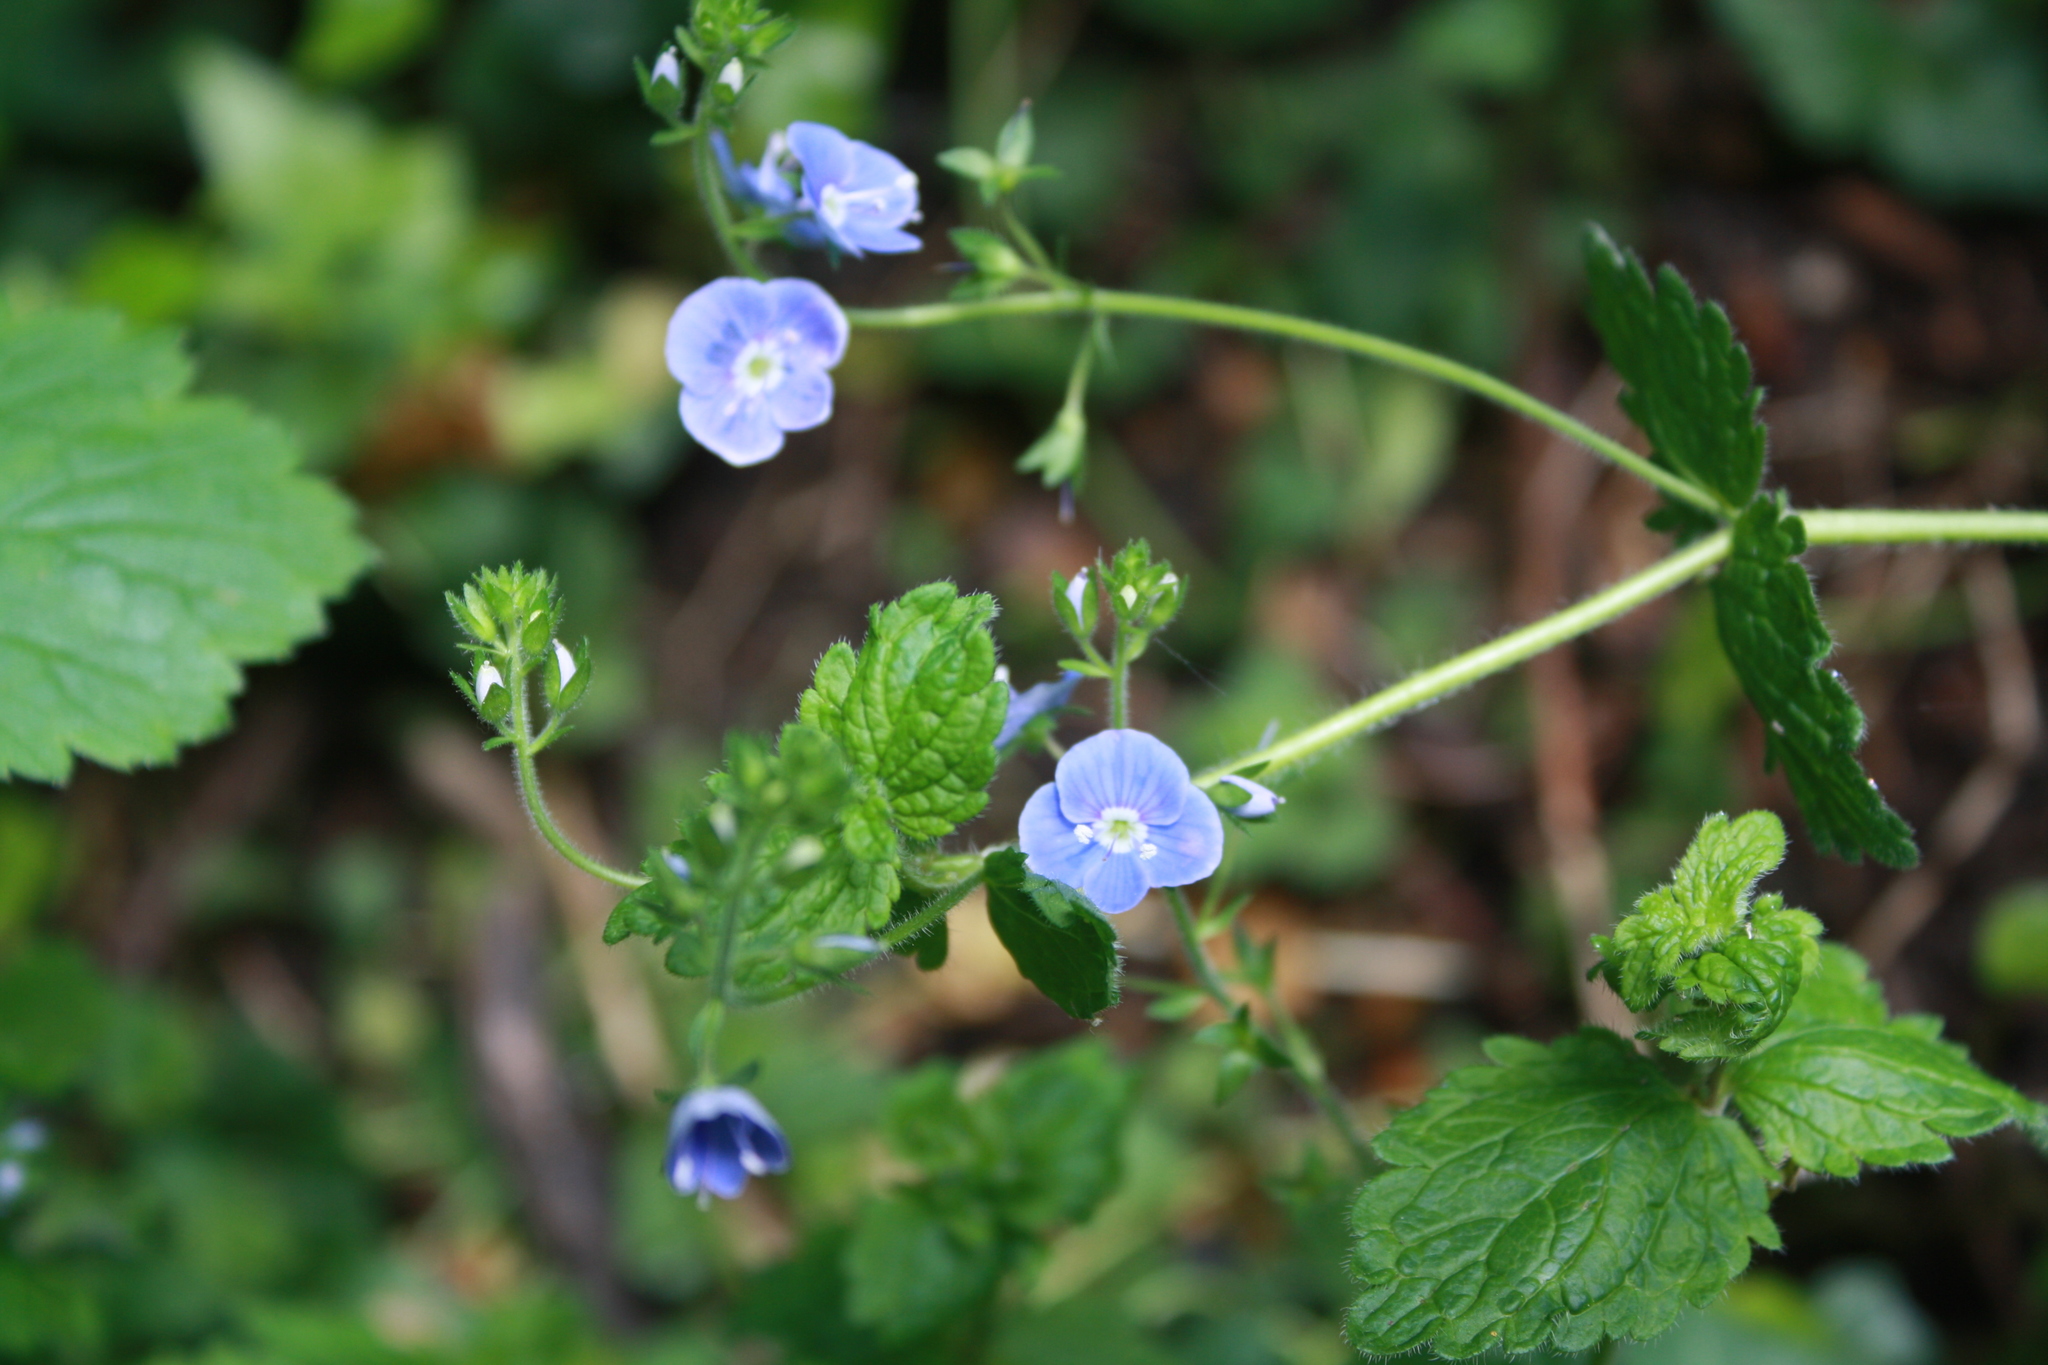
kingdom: Plantae
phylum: Tracheophyta
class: Magnoliopsida
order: Lamiales
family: Plantaginaceae
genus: Veronica
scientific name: Veronica chamaedrys
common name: Germander speedwell
